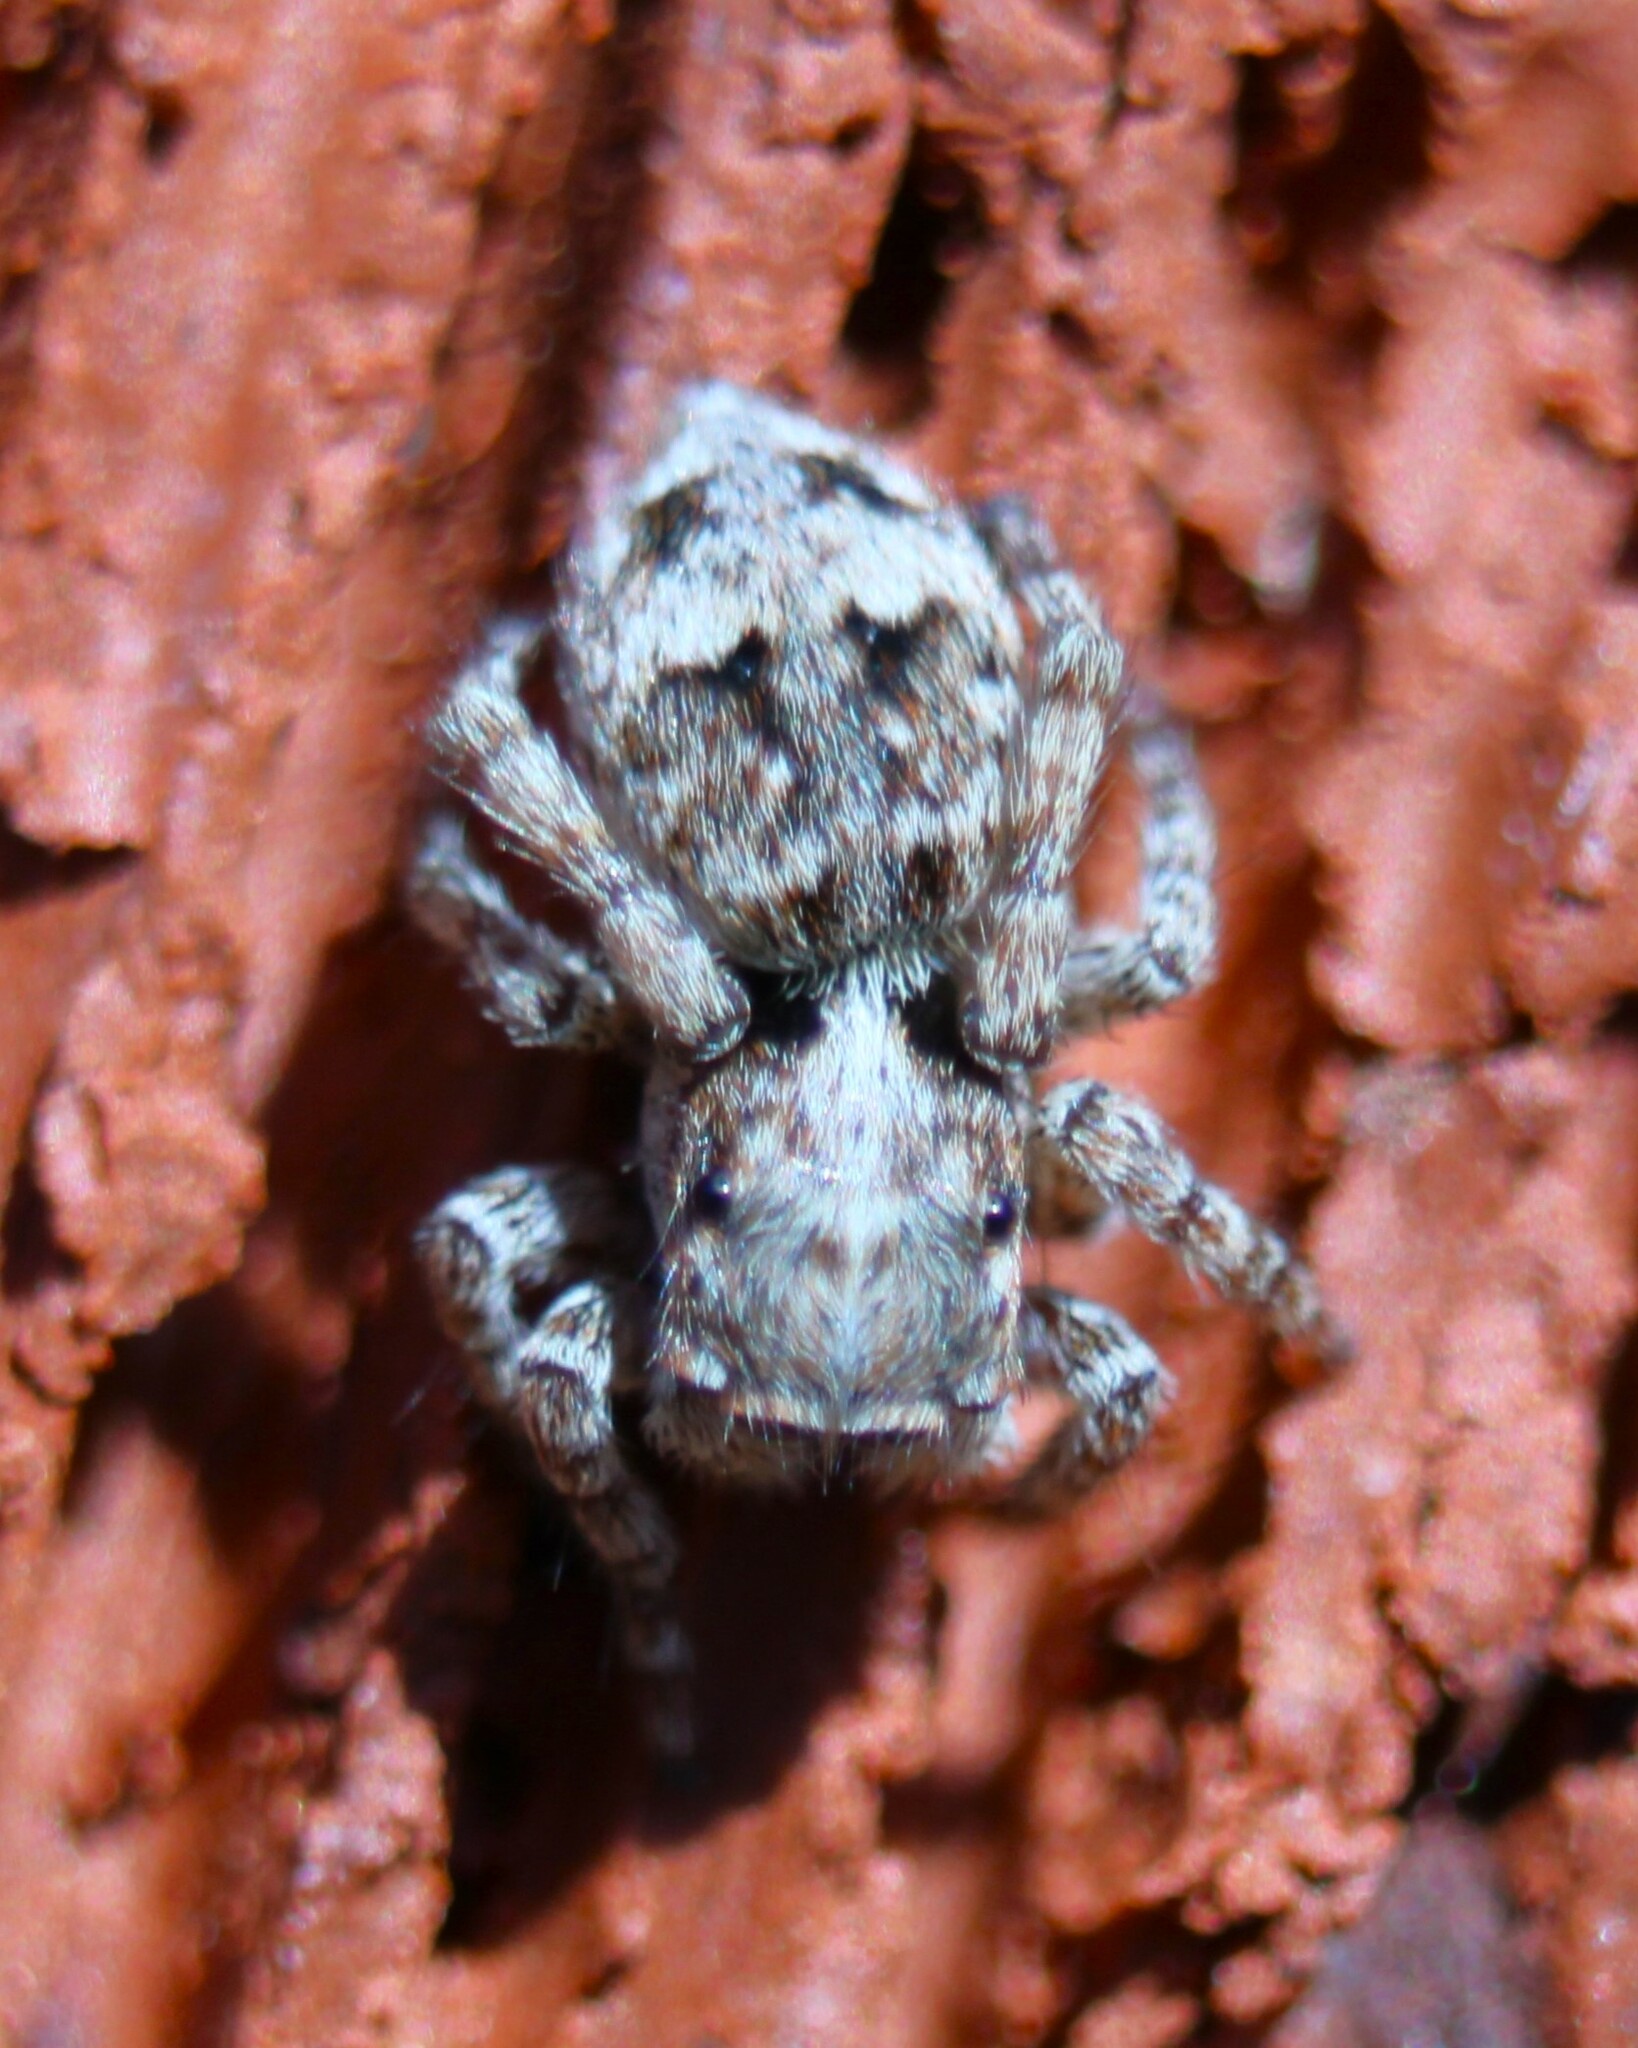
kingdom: Animalia
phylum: Arthropoda
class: Arachnida
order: Araneae
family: Salticidae
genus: Attulus
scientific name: Attulus fasciger
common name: Asiatic wall jumping spider
